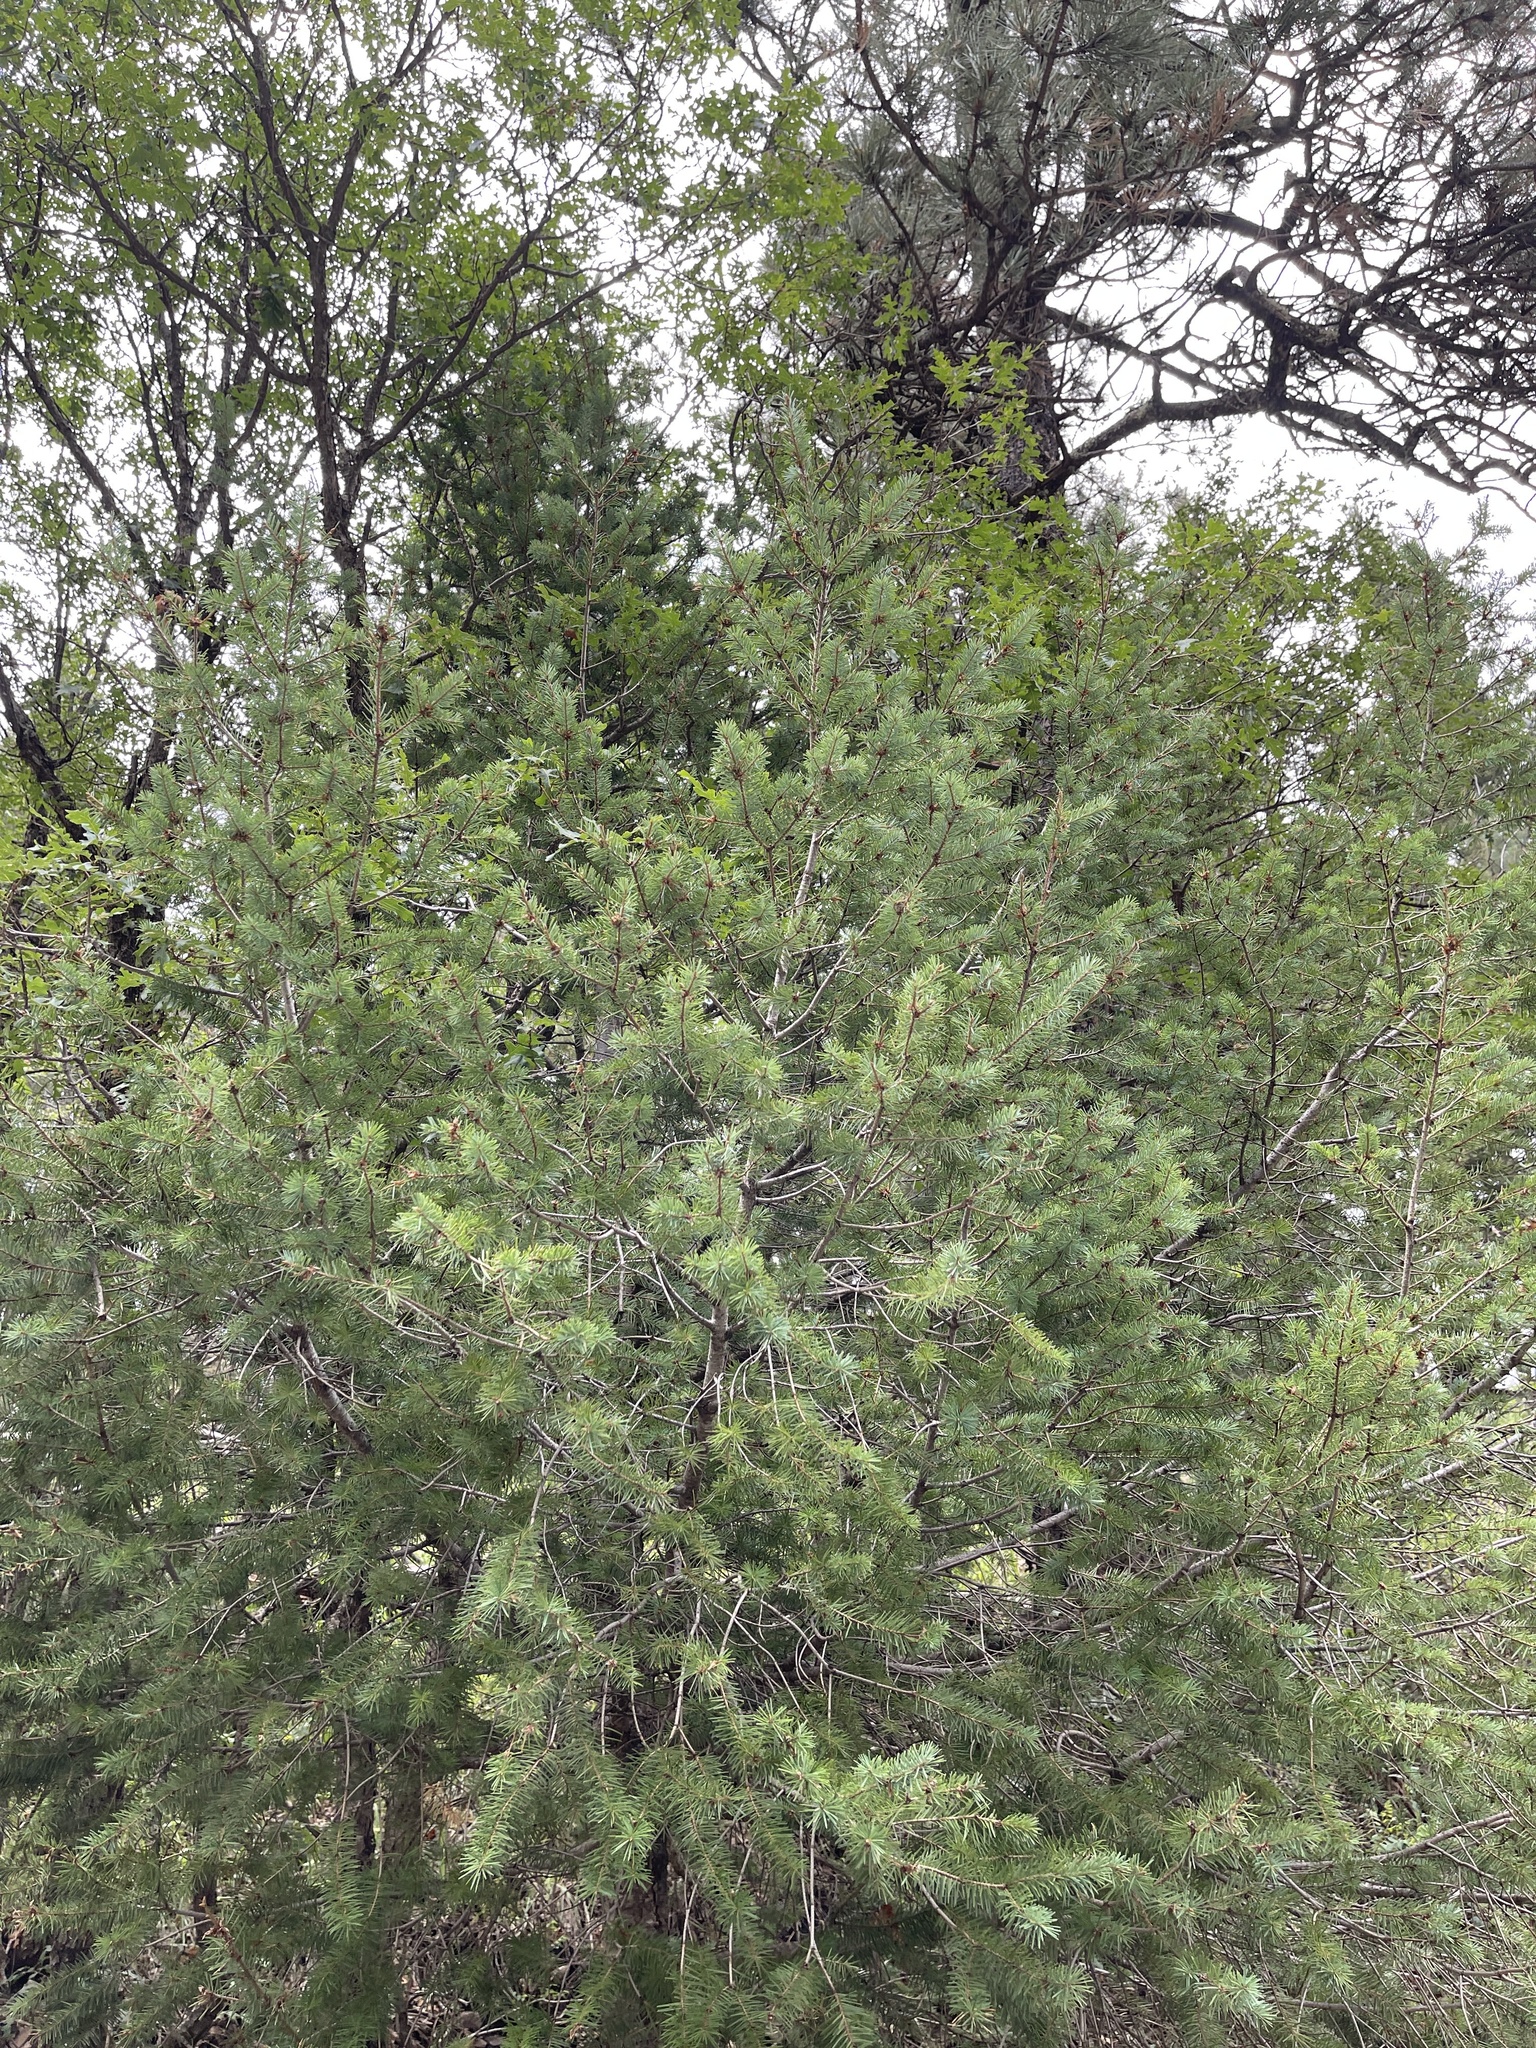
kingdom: Plantae
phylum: Tracheophyta
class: Pinopsida
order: Pinales
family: Pinaceae
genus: Pseudotsuga
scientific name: Pseudotsuga menziesii
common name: Douglas fir
